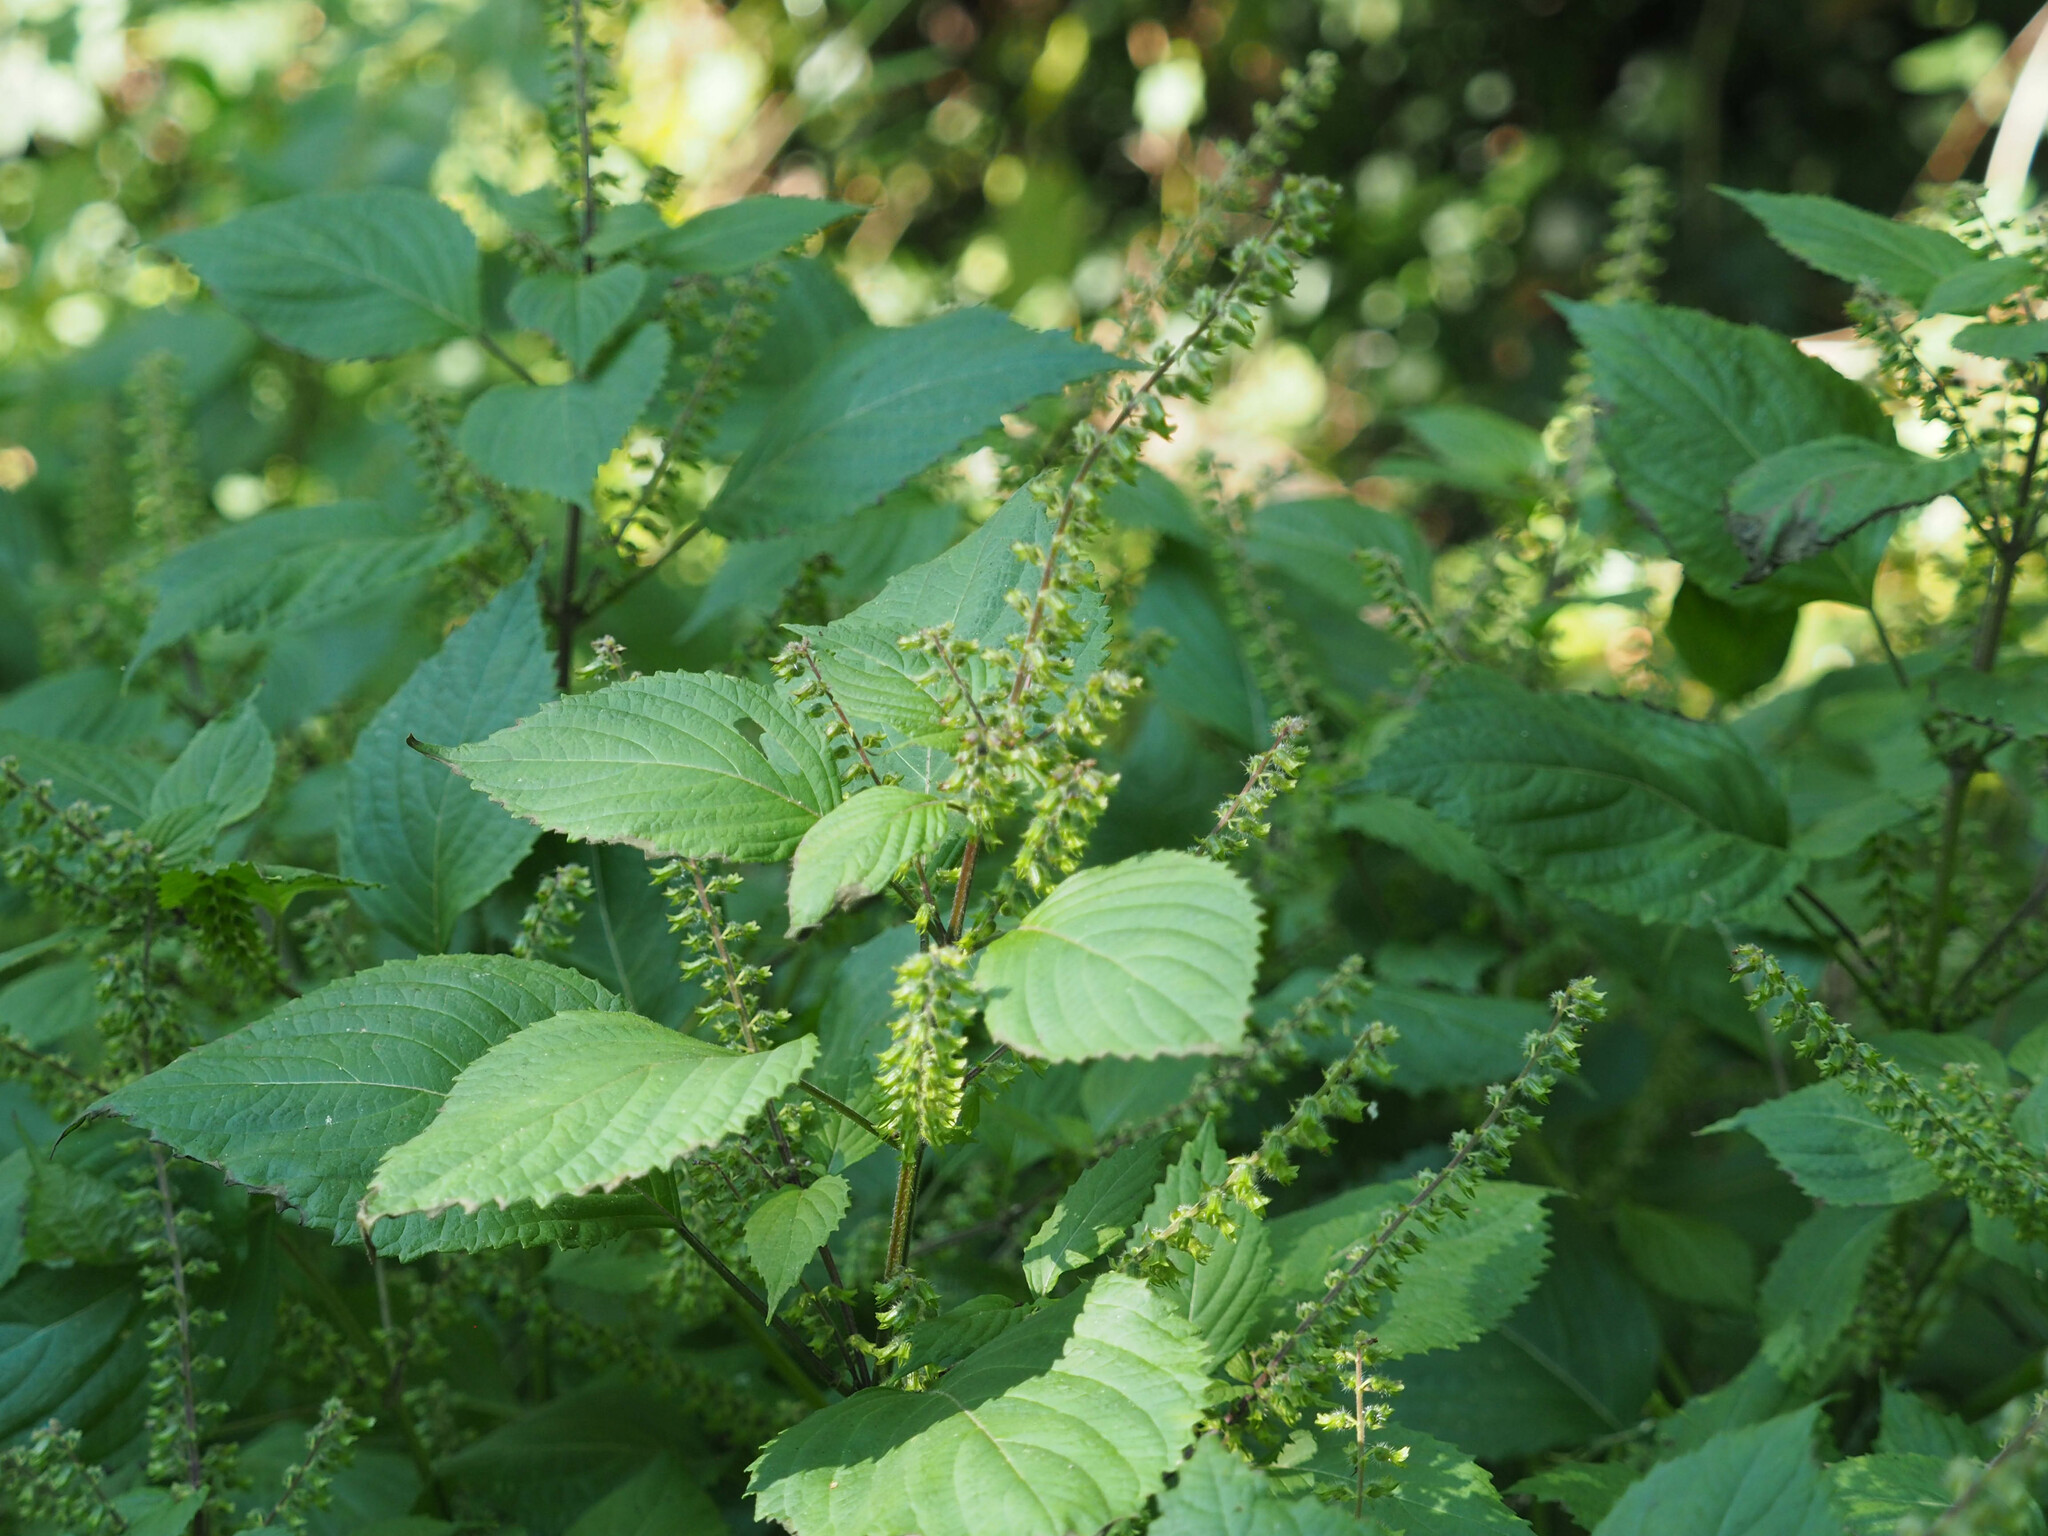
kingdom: Plantae
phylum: Tracheophyta
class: Magnoliopsida
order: Lamiales
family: Lamiaceae
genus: Perilla
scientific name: Perilla frutescens
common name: Perilla
